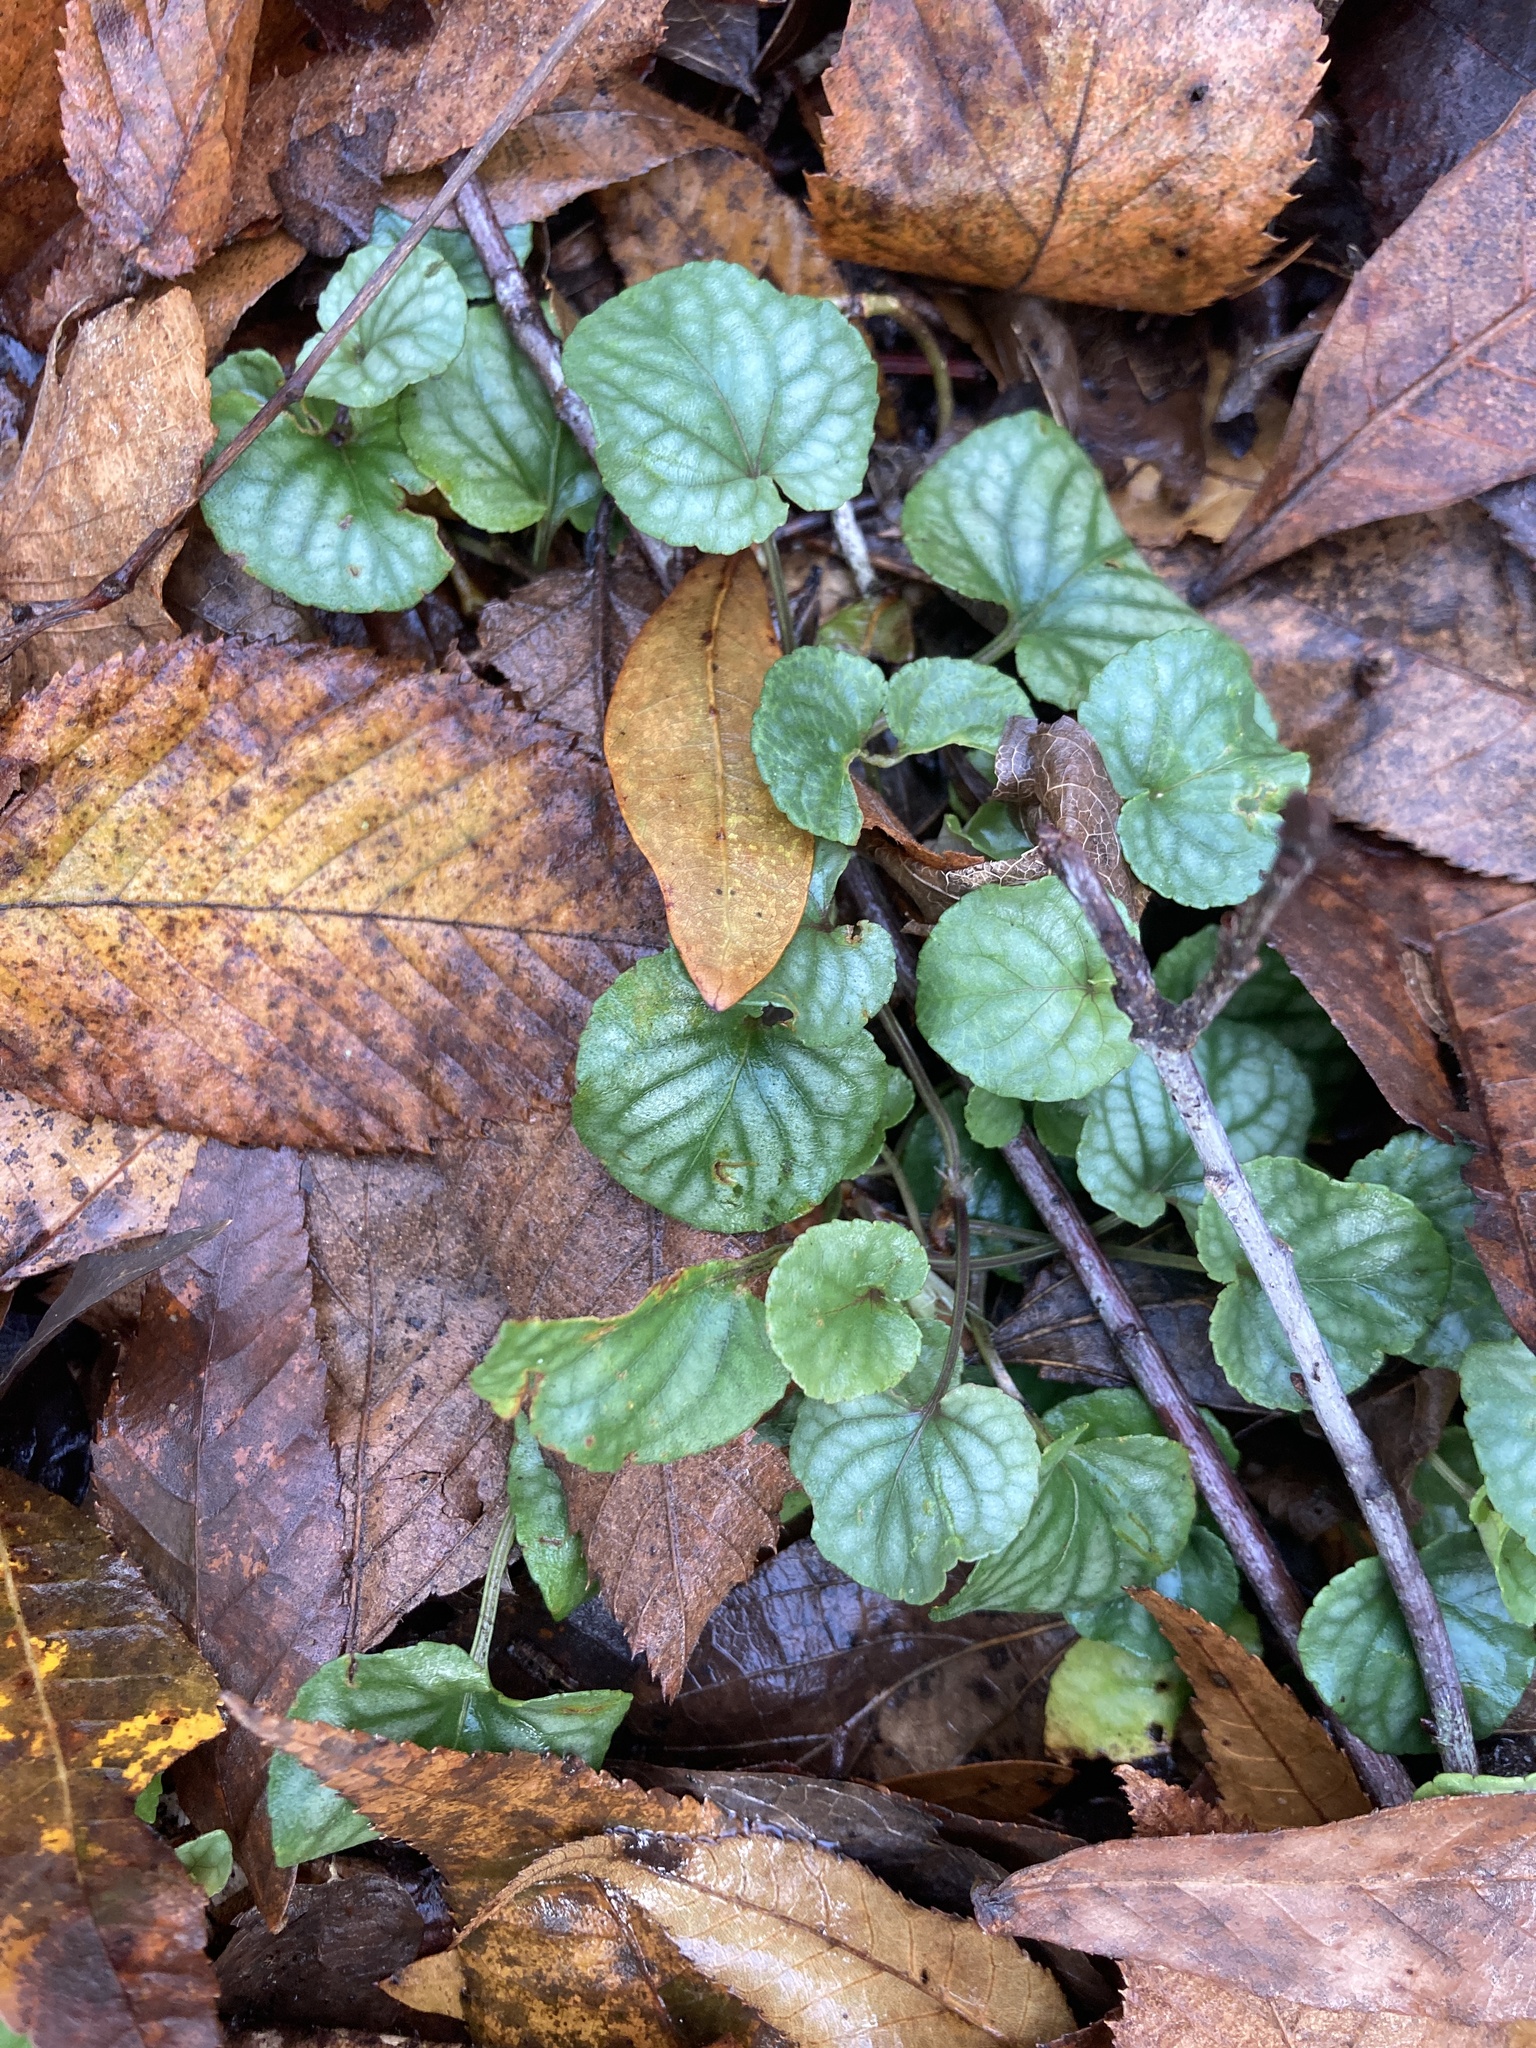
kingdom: Plantae
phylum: Tracheophyta
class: Magnoliopsida
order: Malpighiales
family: Violaceae
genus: Viola
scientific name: Viola walteri
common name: Prostrate southern violet
